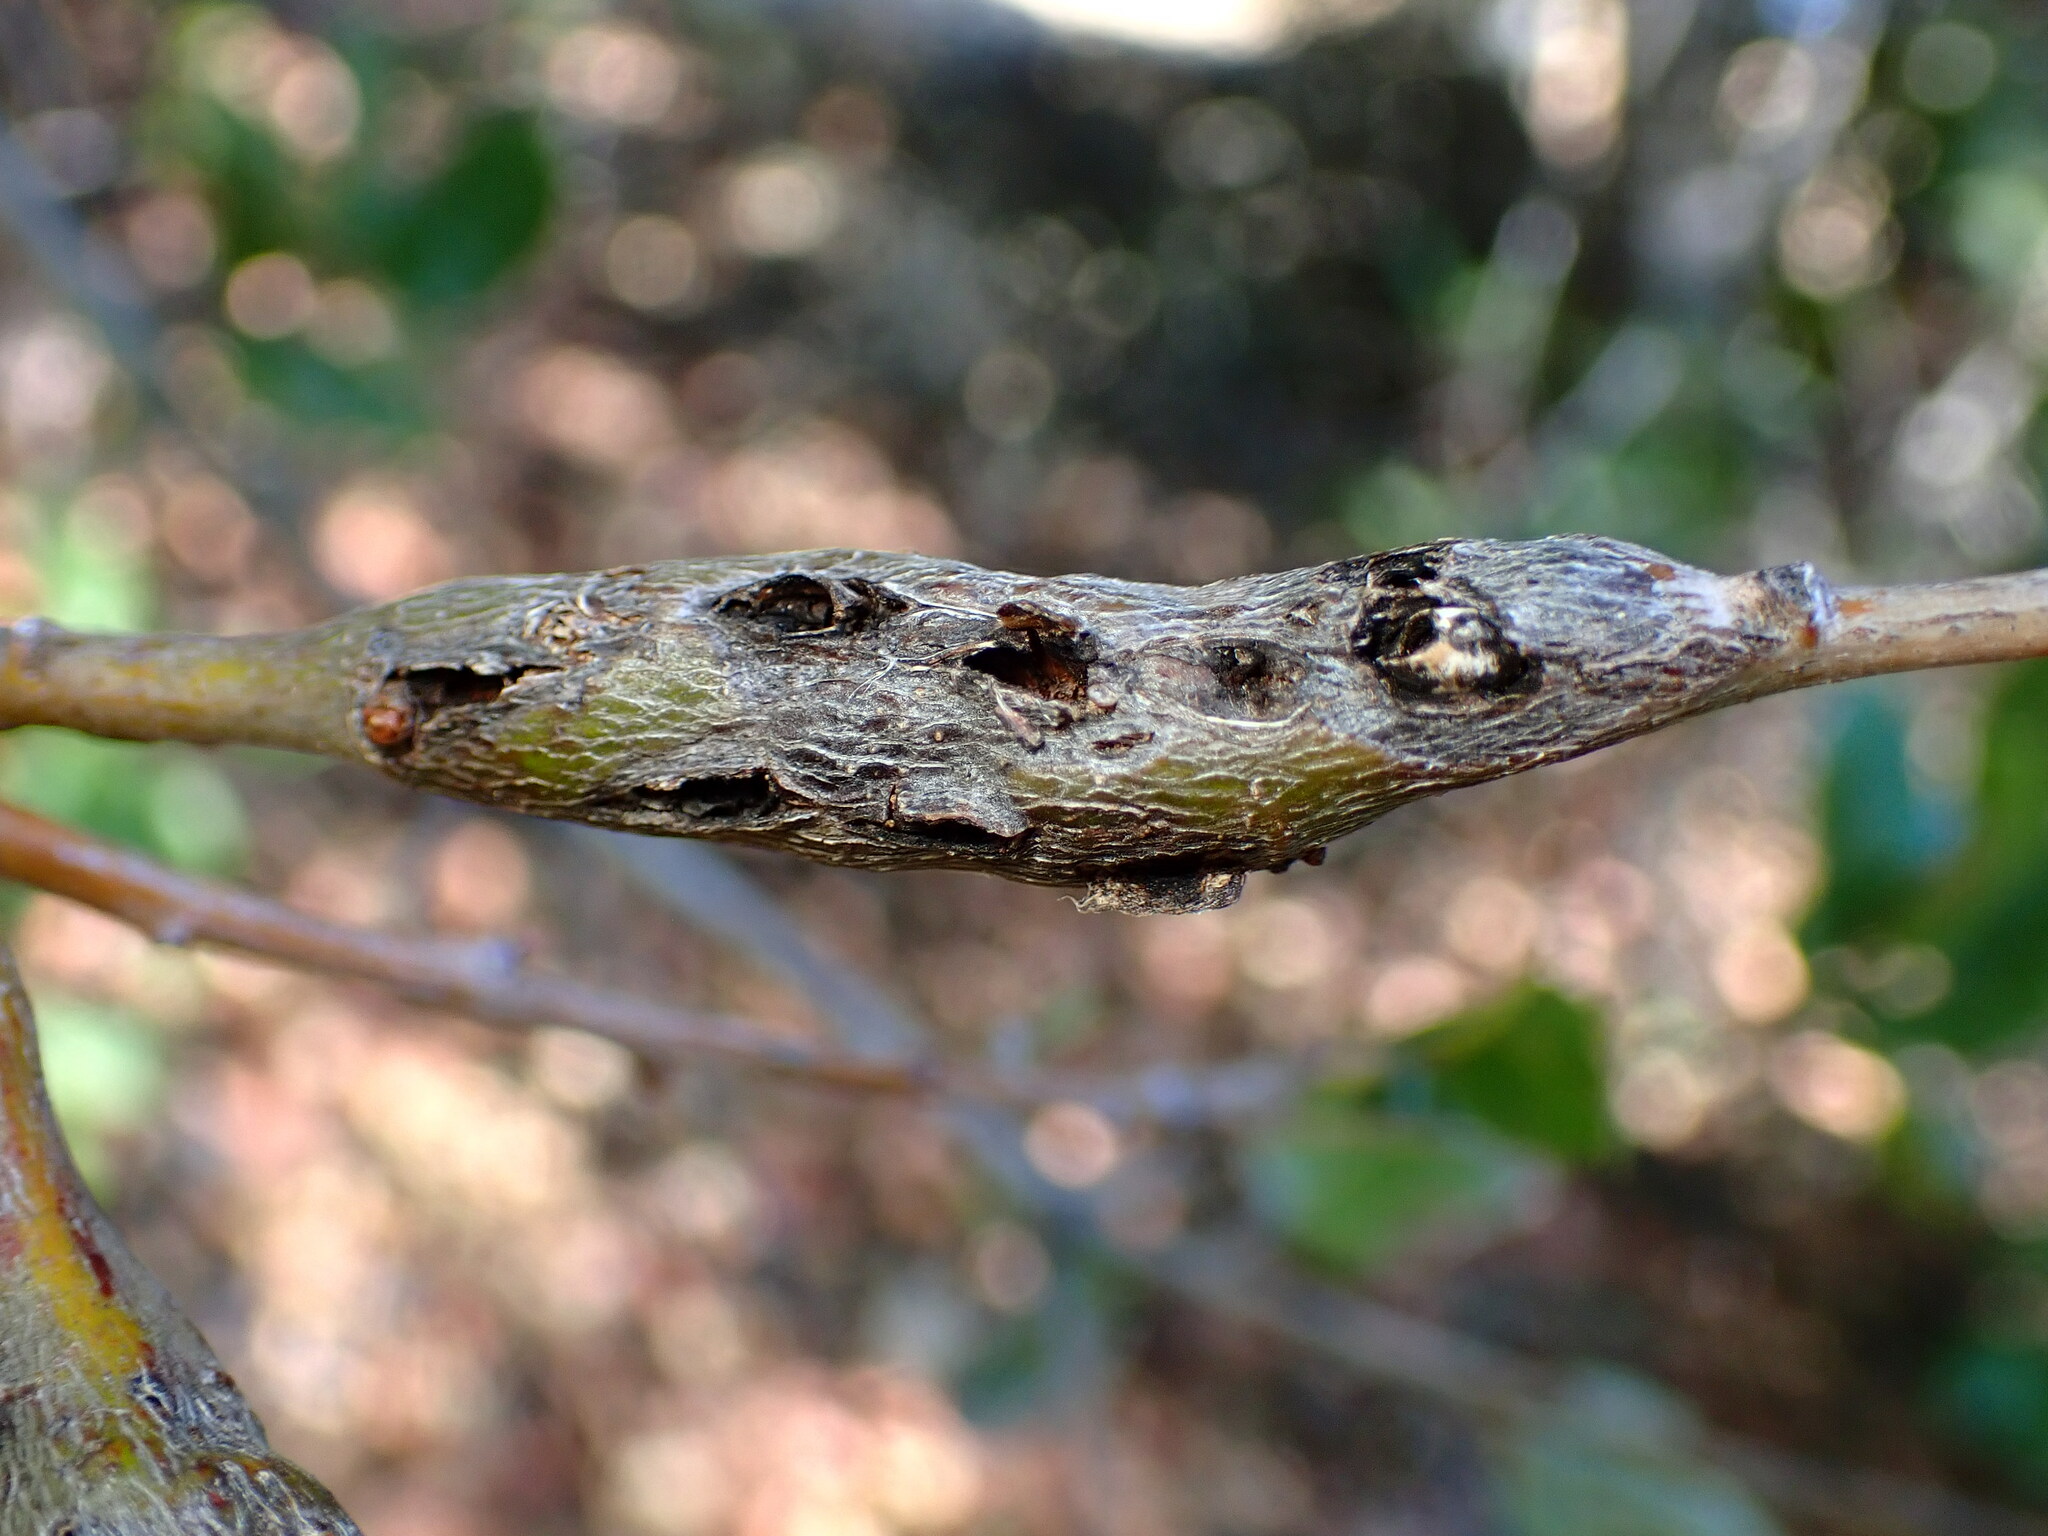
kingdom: Animalia
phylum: Arthropoda
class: Insecta
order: Hymenoptera
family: Cynipidae
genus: Callirhytis
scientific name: Callirhytis
